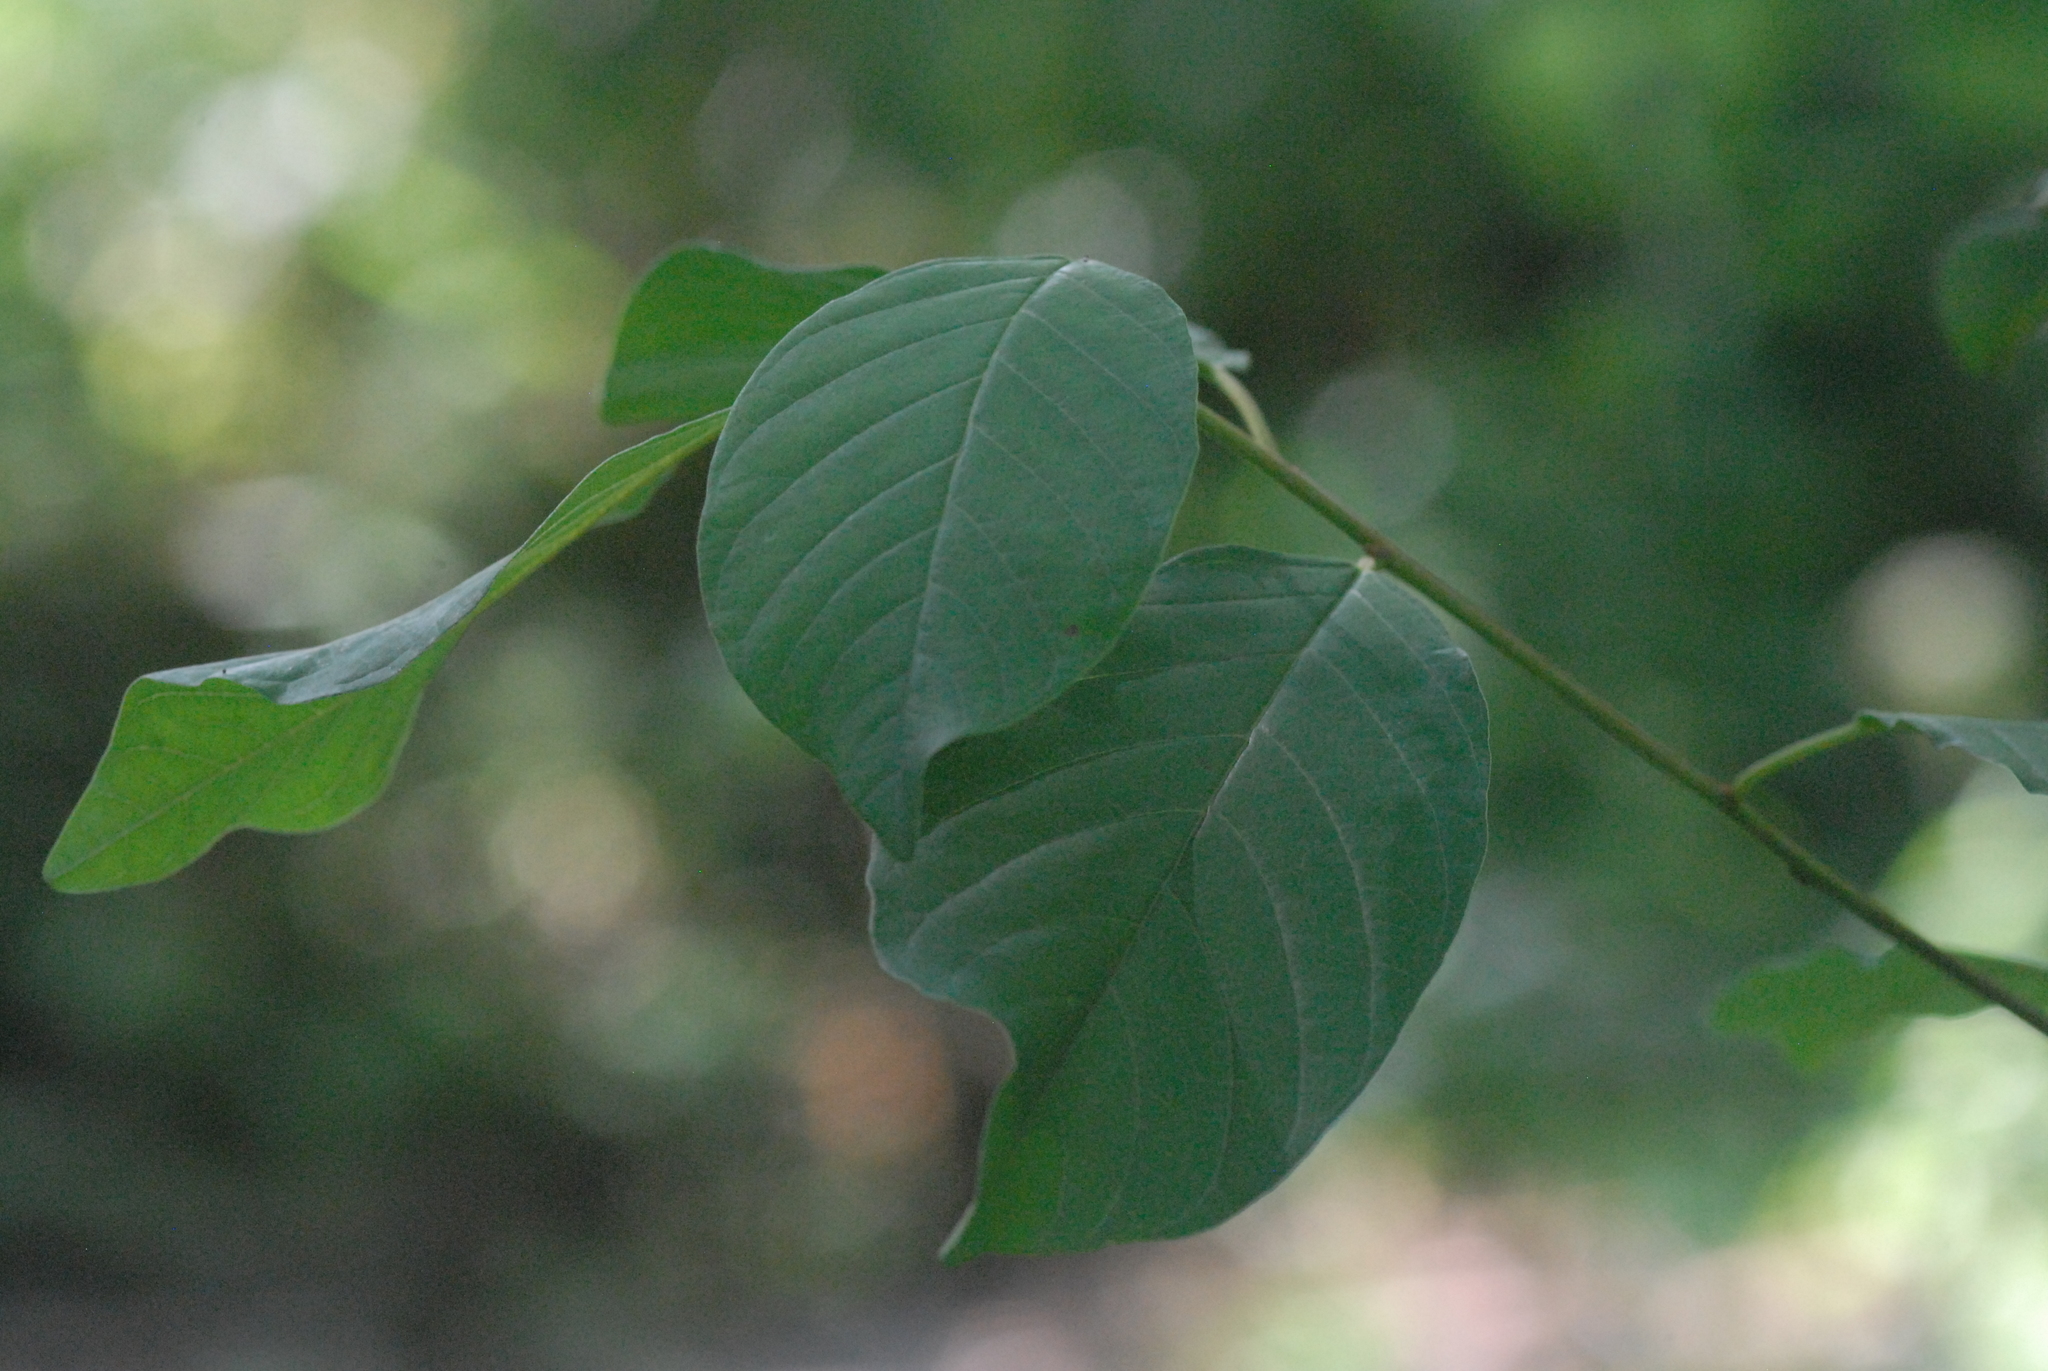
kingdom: Plantae
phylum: Tracheophyta
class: Magnoliopsida
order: Rosales
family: Rhamnaceae
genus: Frangula
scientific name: Frangula alnus
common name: Alder buckthorn
